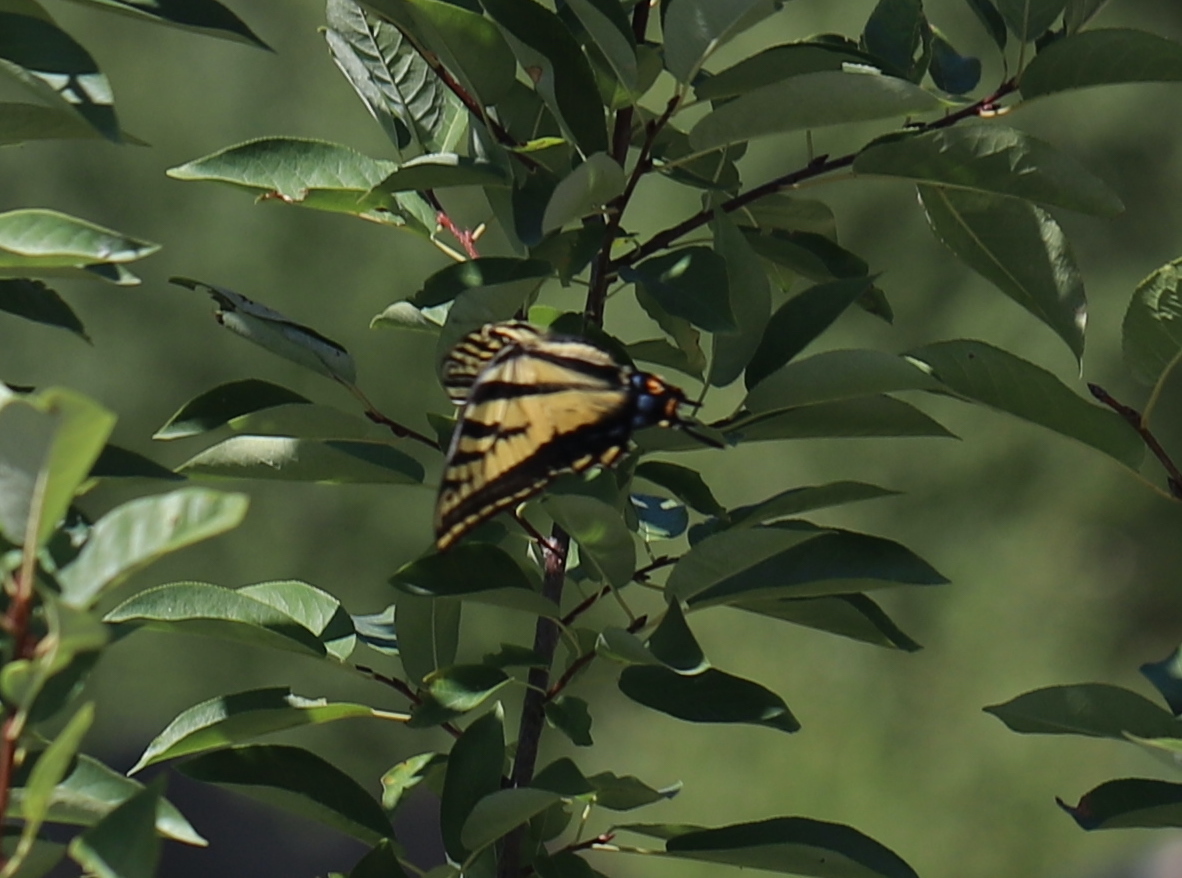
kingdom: Animalia
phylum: Arthropoda
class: Insecta
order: Lepidoptera
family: Papilionidae
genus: Papilio
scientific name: Papilio multicaudata
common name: Two-tailed tiger swallowtail
